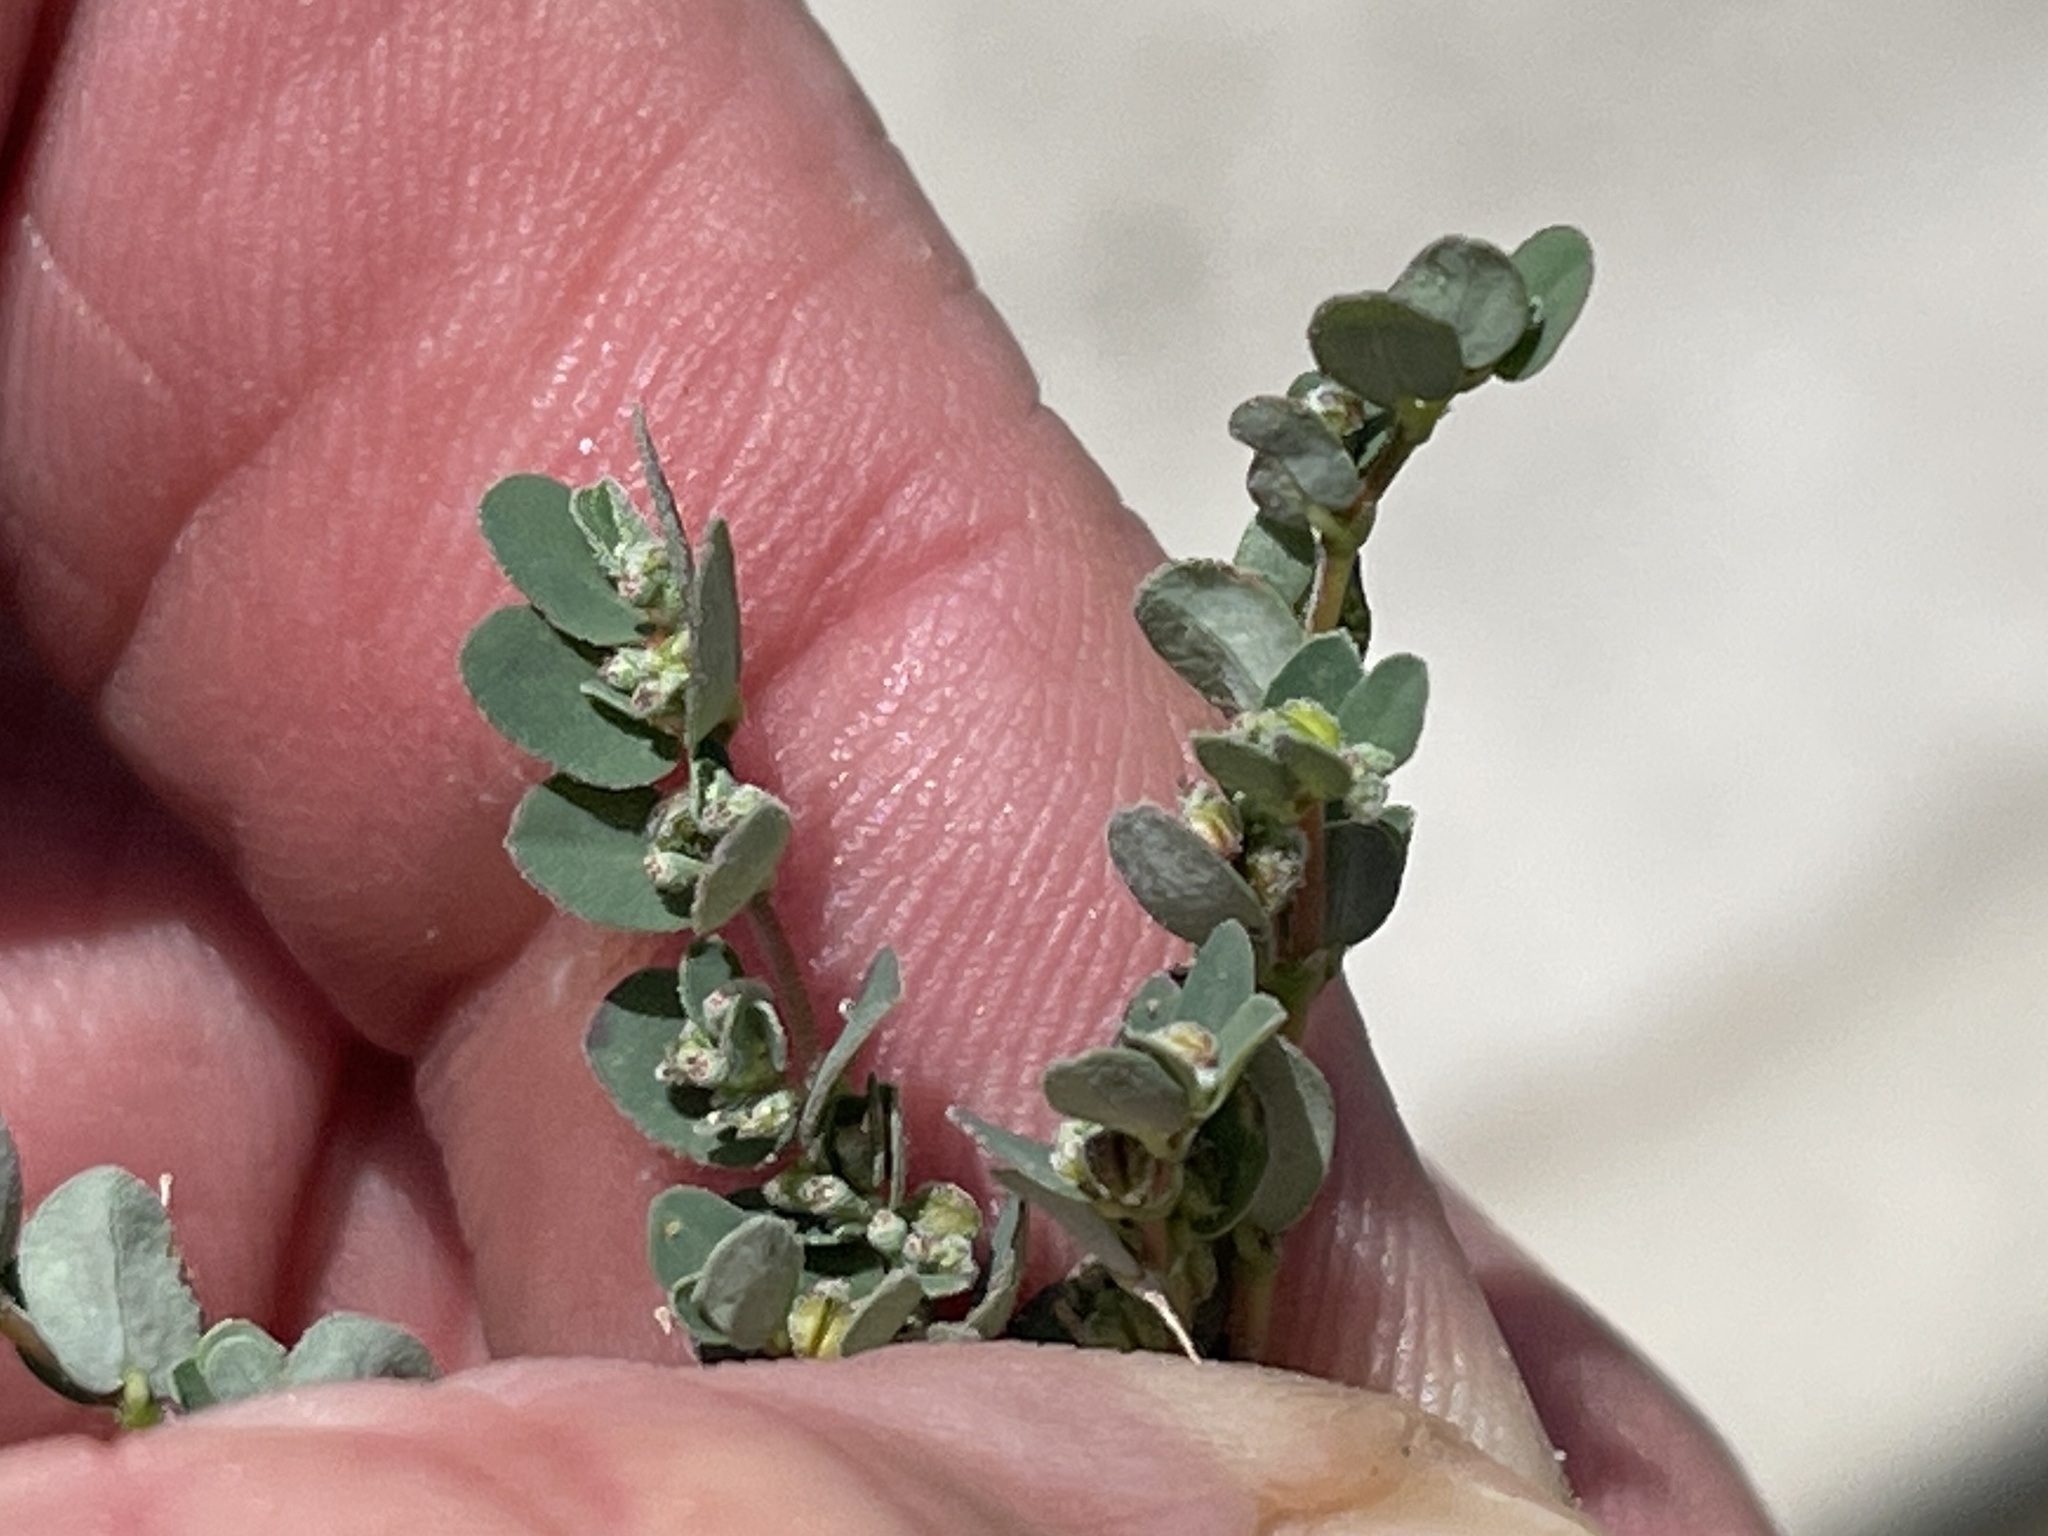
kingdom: Plantae
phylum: Tracheophyta
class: Magnoliopsida
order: Malpighiales
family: Euphorbiaceae
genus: Euphorbia
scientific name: Euphorbia prostrata
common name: Prostrate sandmat
